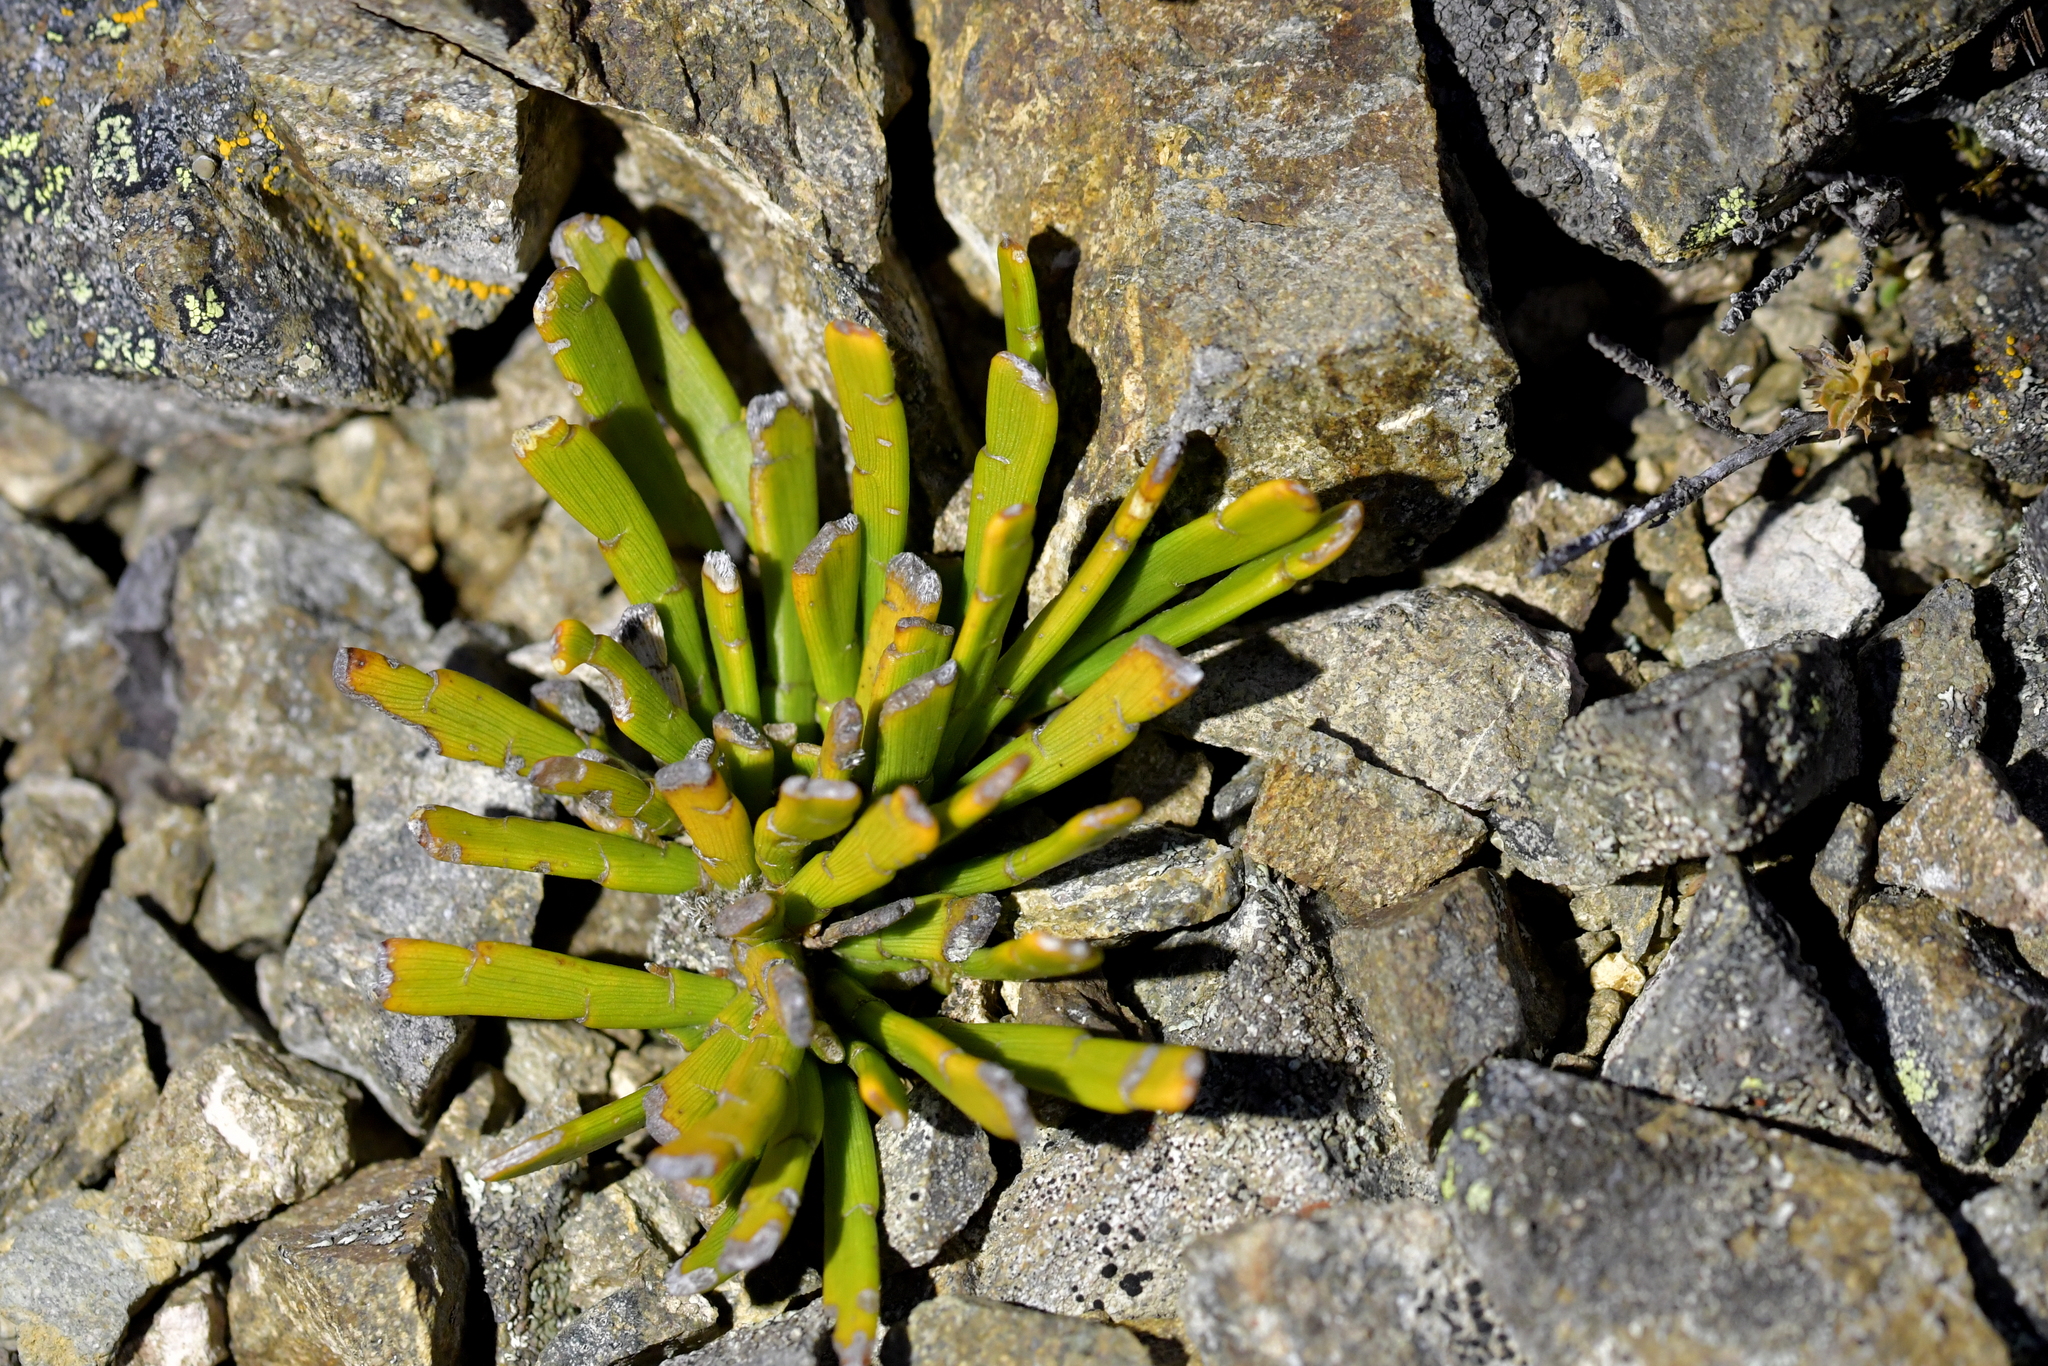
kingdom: Plantae
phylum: Tracheophyta
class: Magnoliopsida
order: Fabales
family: Fabaceae
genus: Carmichaelia
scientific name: Carmichaelia monroi
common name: Stout dwarf broom
